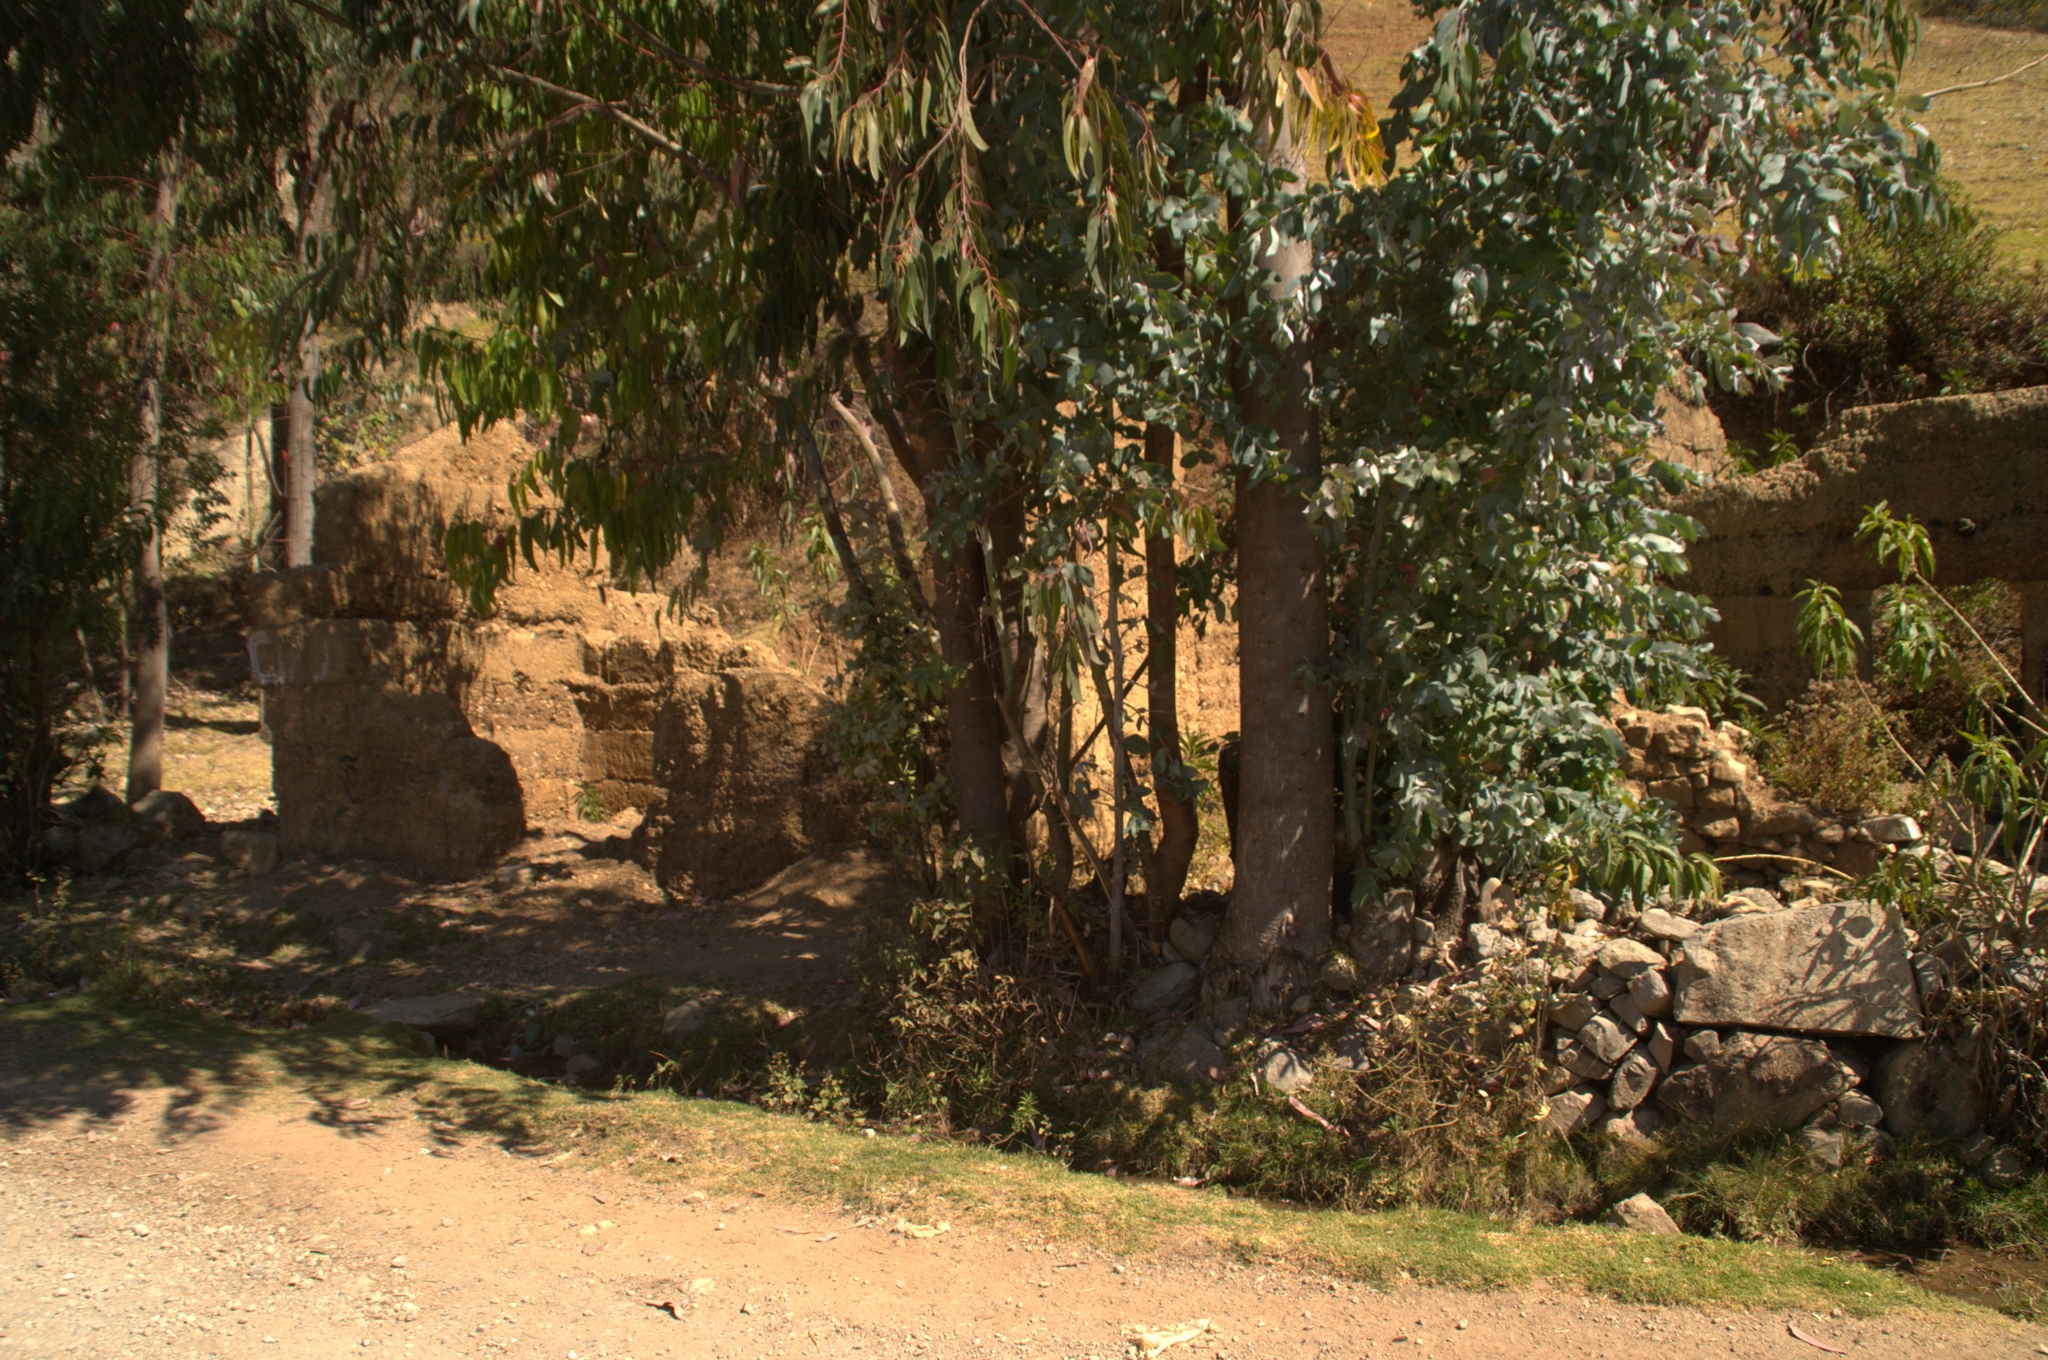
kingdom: Plantae
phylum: Tracheophyta
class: Magnoliopsida
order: Myrtales
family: Myrtaceae
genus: Eucalyptus
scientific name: Eucalyptus globulus
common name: Southern blue-gum
